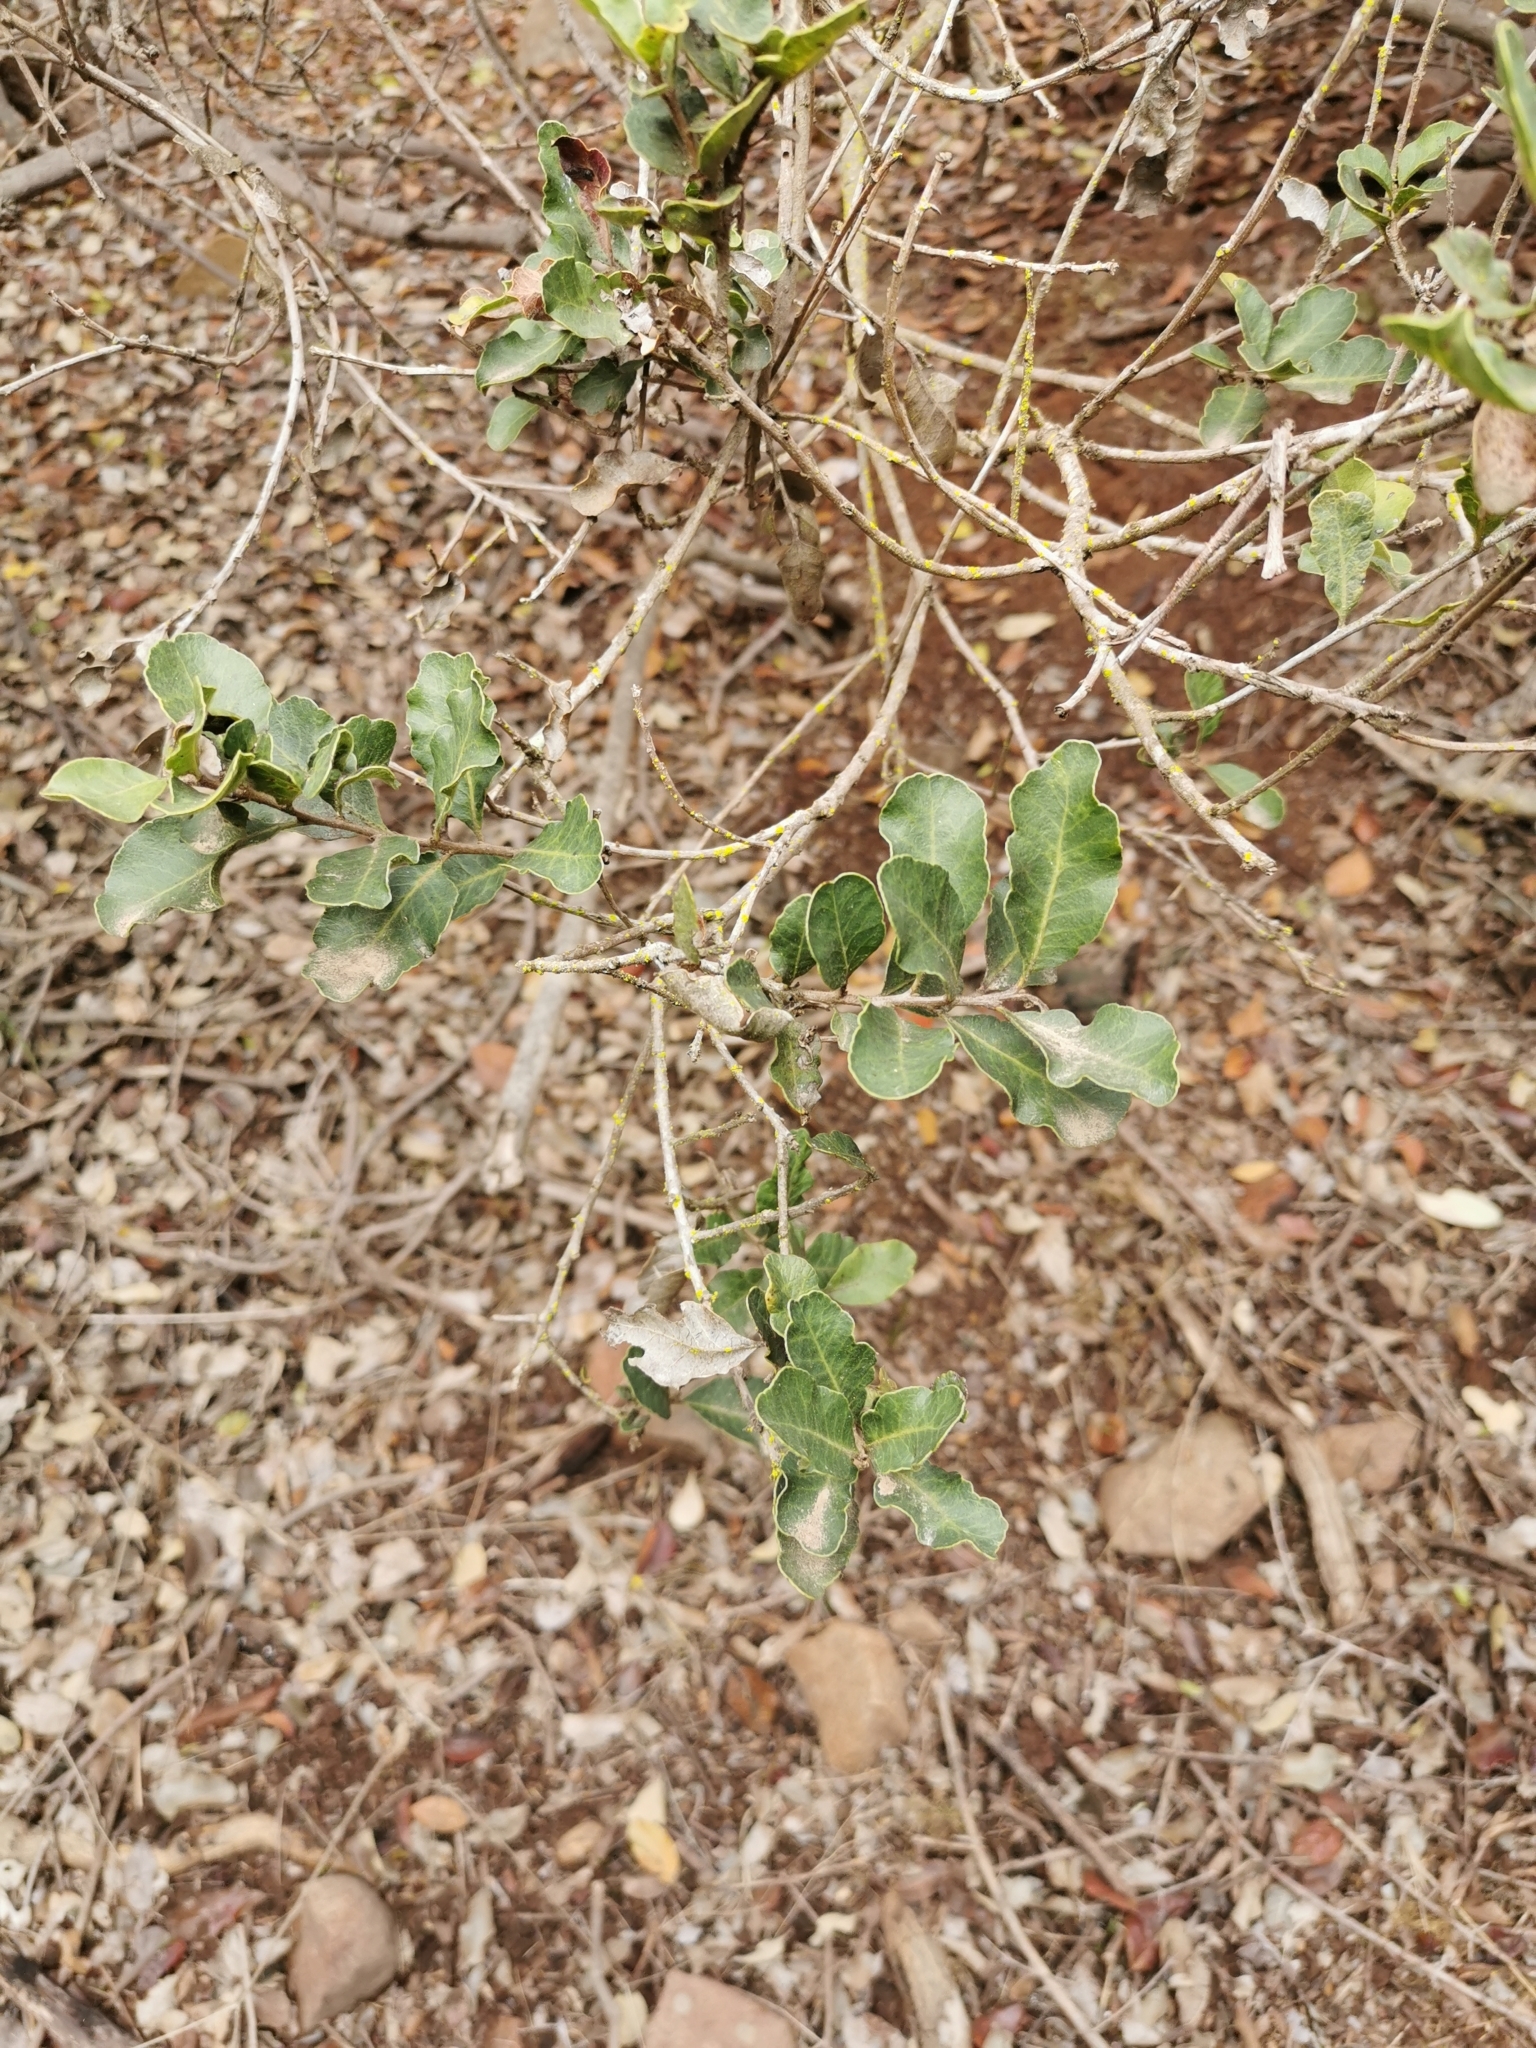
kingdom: Plantae
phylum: Tracheophyta
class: Magnoliopsida
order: Sapindales
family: Anacardiaceae
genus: Lithraea
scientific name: Lithraea caustica
